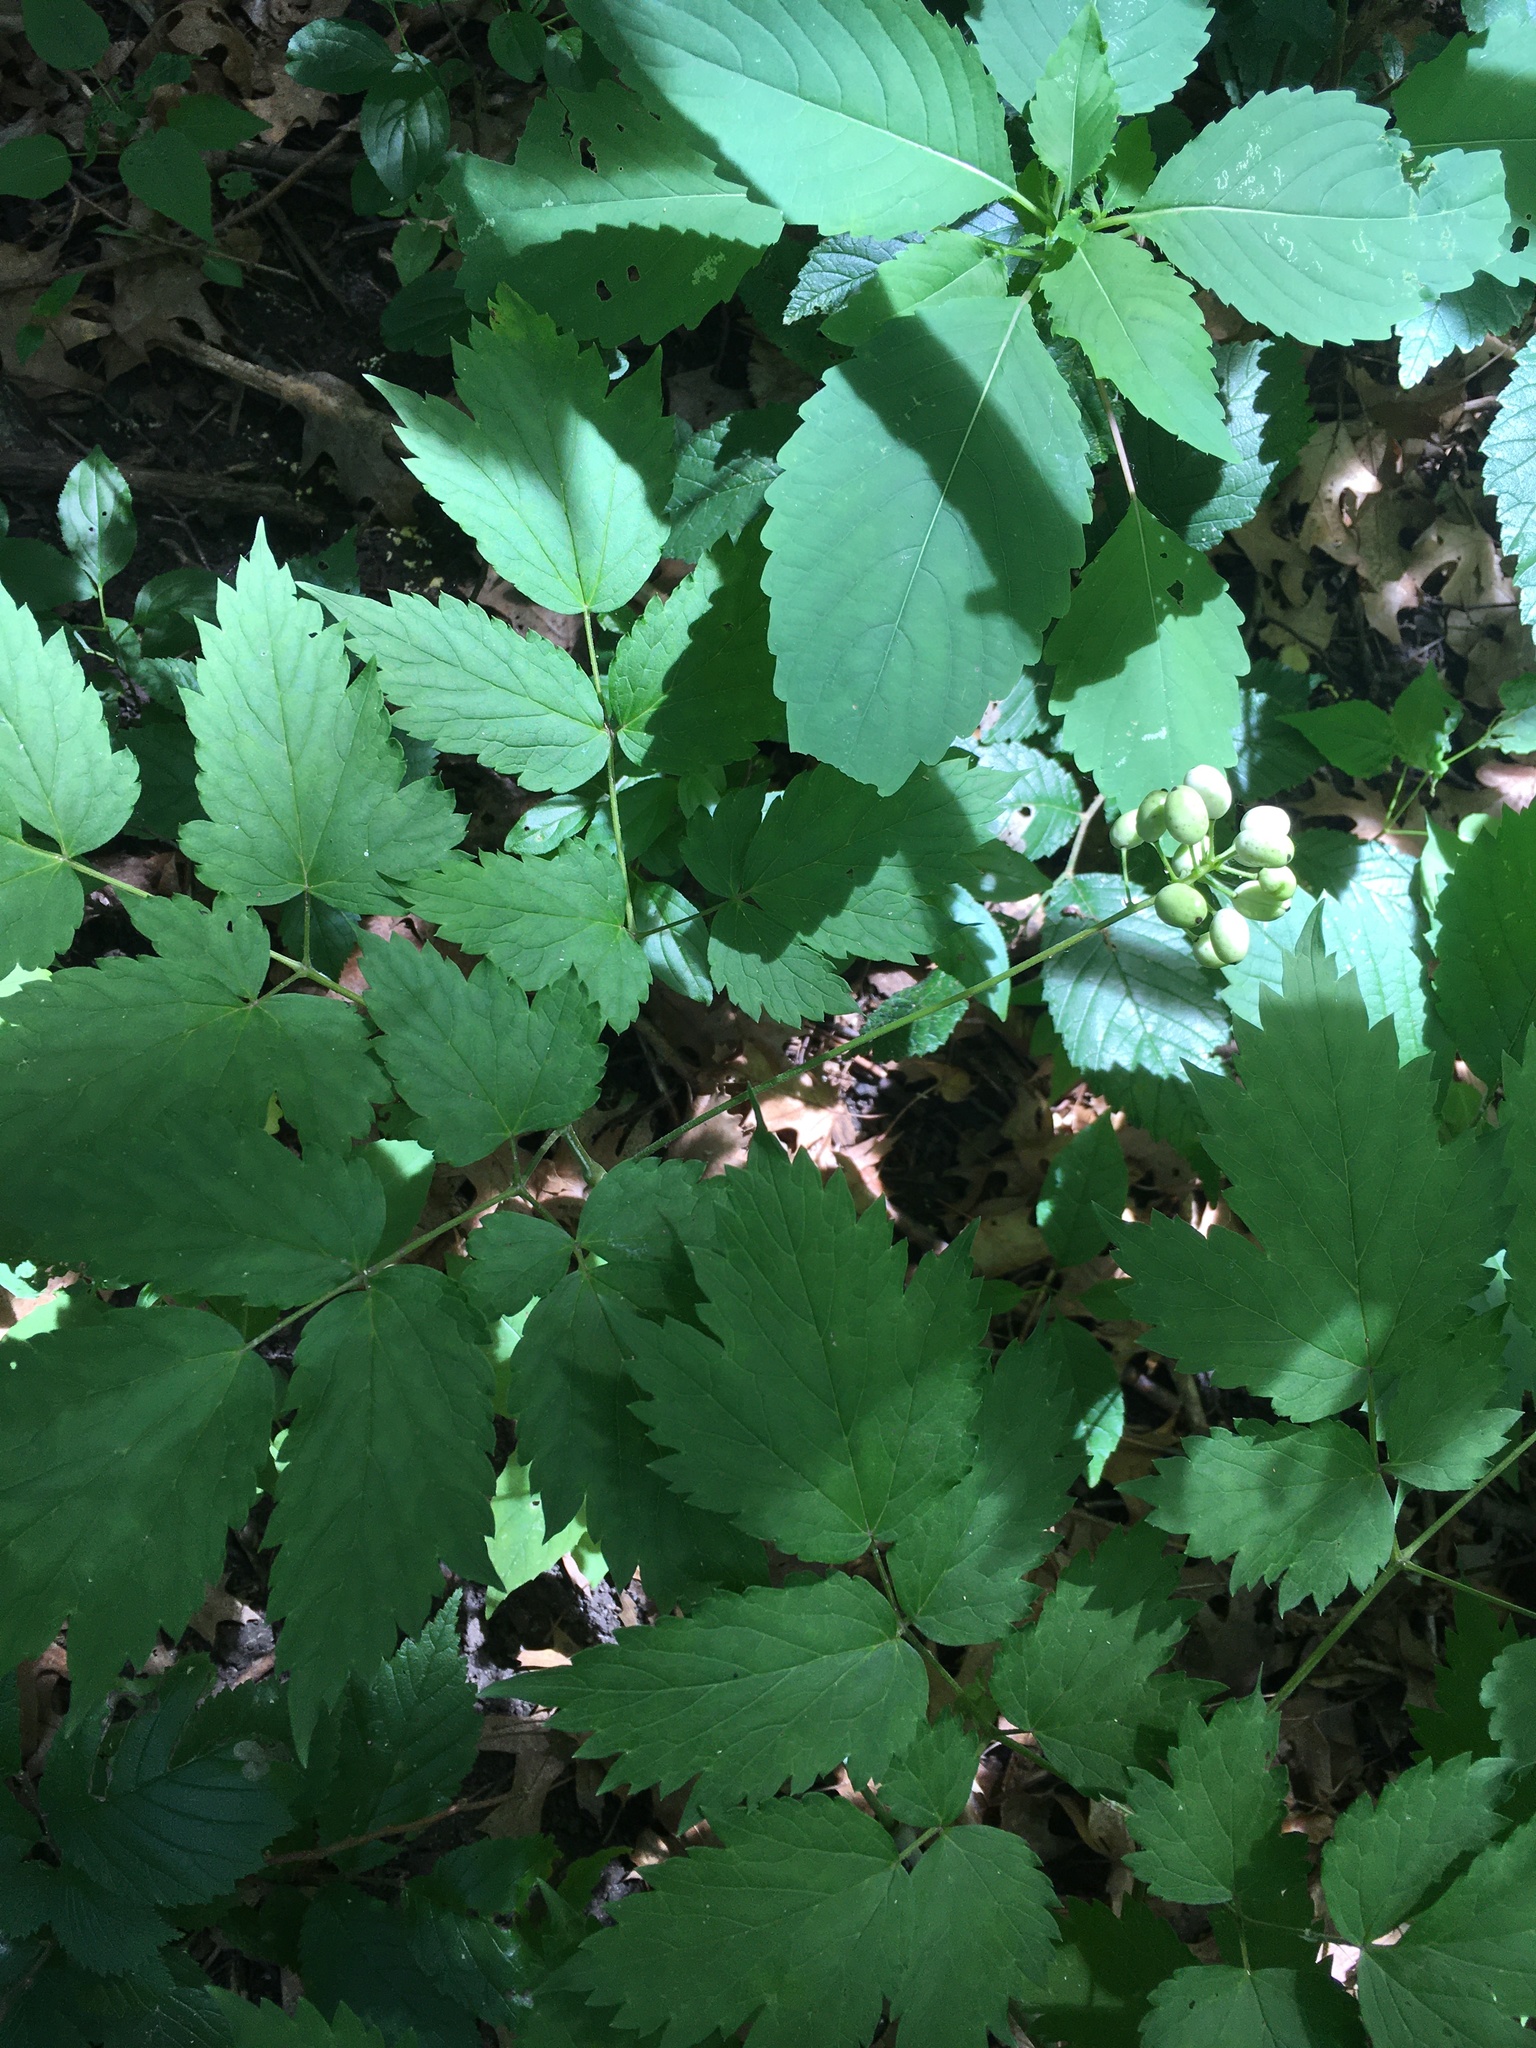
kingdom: Plantae
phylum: Tracheophyta
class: Magnoliopsida
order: Ranunculales
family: Ranunculaceae
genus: Actaea
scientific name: Actaea rubra
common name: Red baneberry
